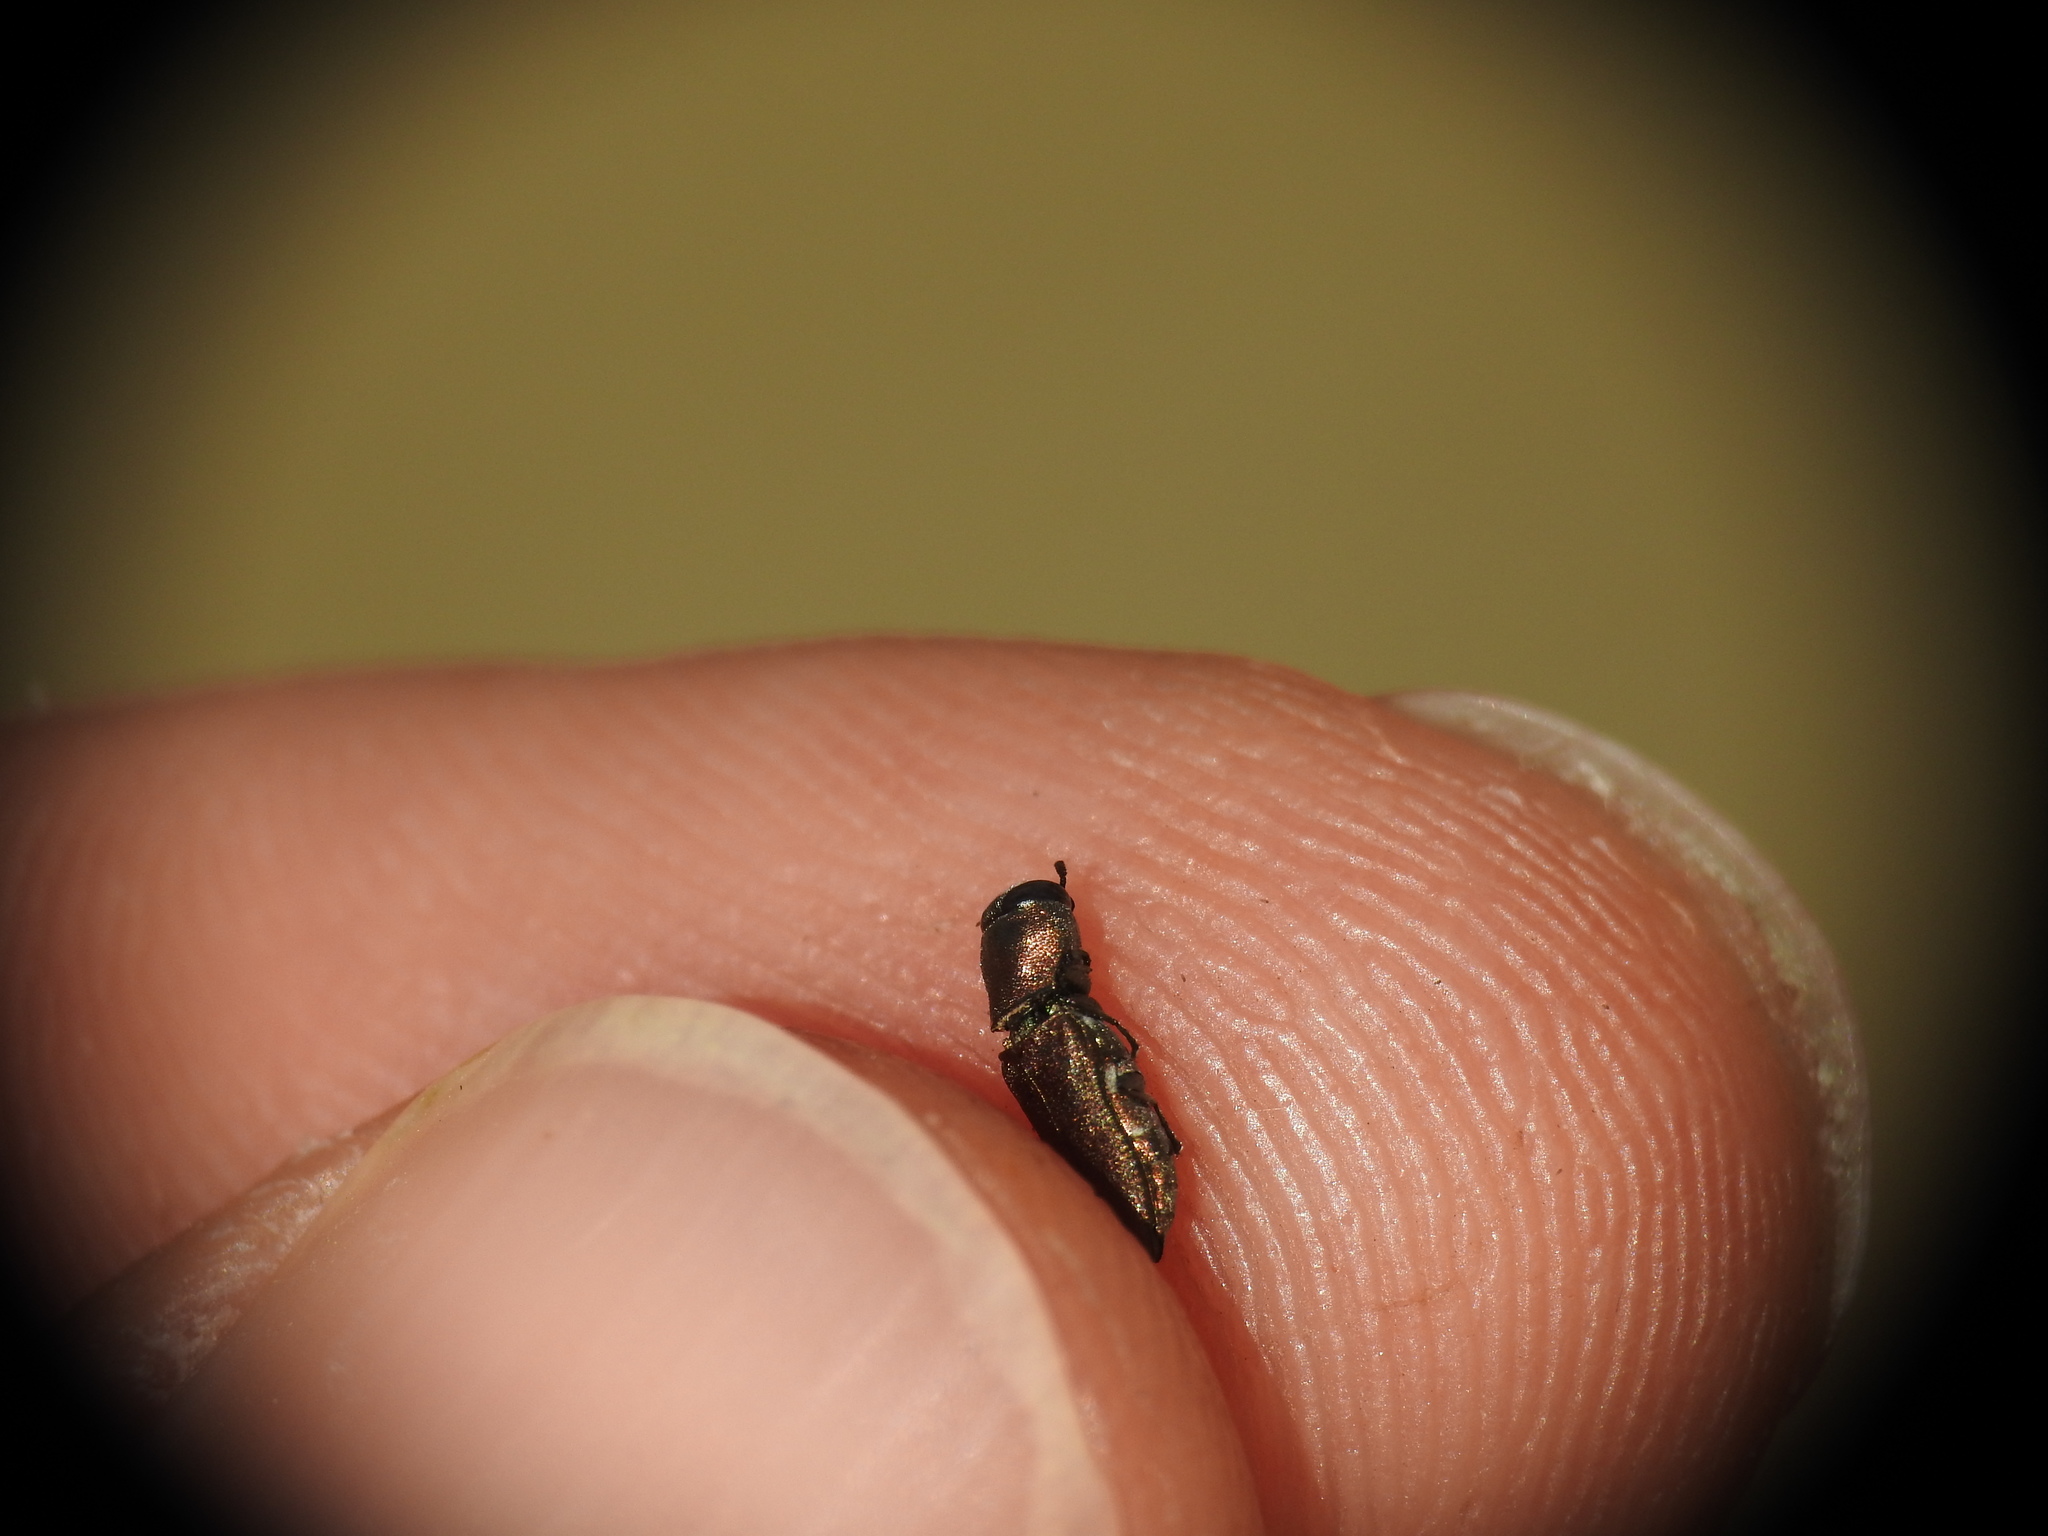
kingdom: Animalia
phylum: Arthropoda
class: Insecta
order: Coleoptera
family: Buprestidae
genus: Anthaxia
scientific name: Anthaxia umbellatarum
